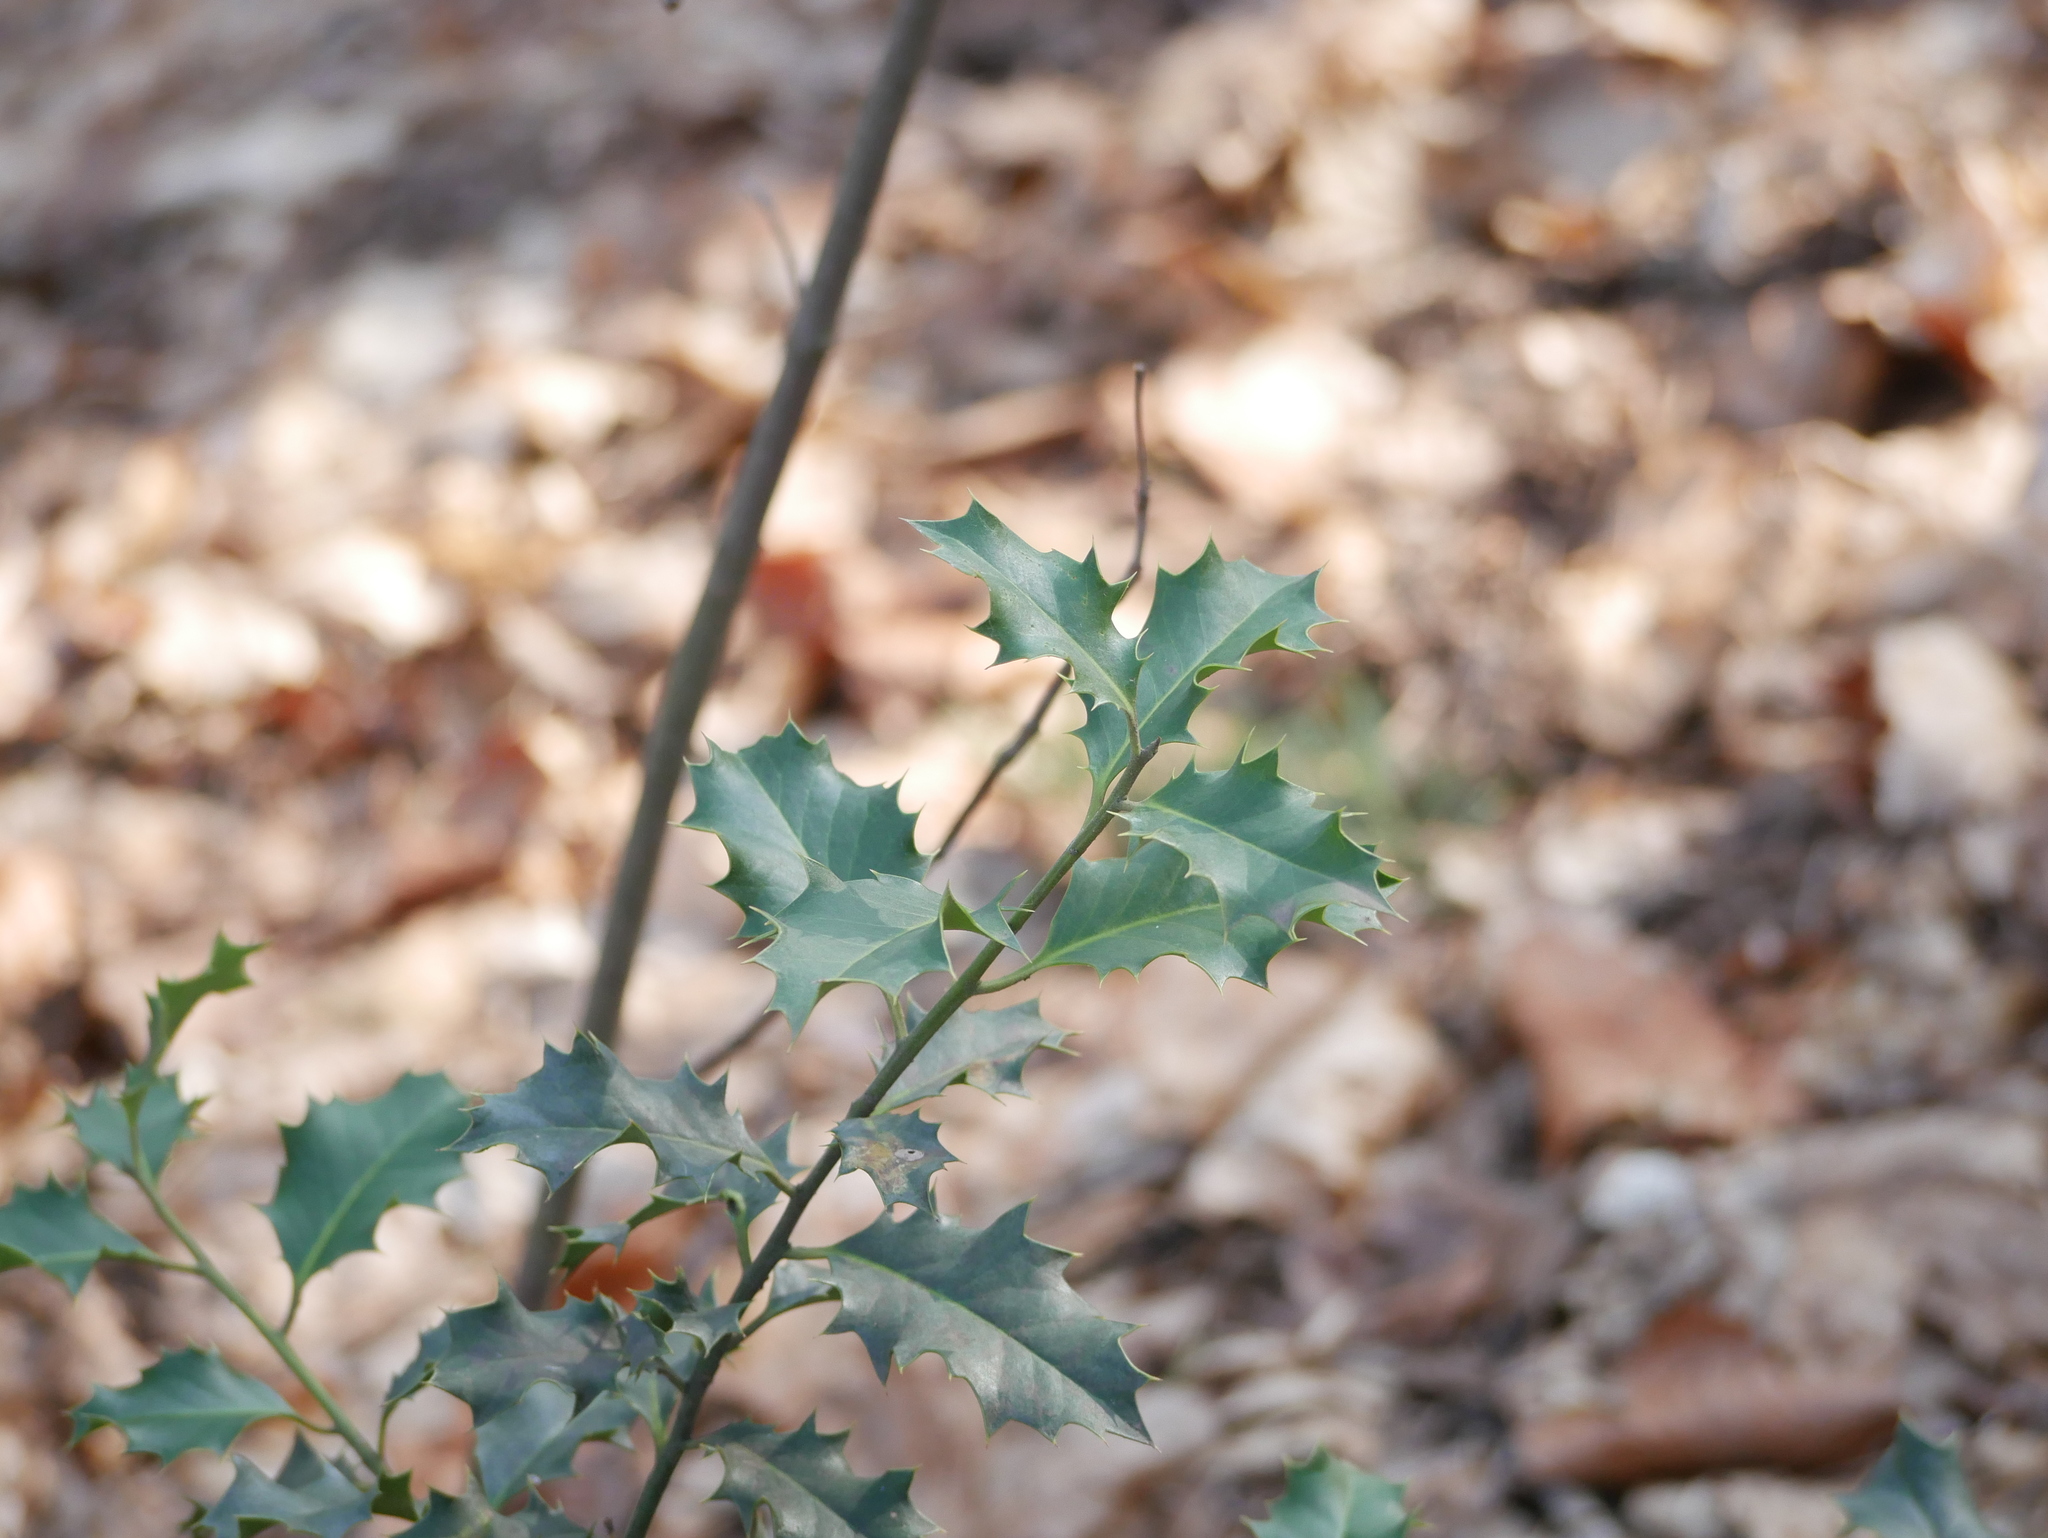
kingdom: Plantae
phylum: Tracheophyta
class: Magnoliopsida
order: Aquifoliales
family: Aquifoliaceae
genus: Ilex
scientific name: Ilex aquifolium
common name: English holly
